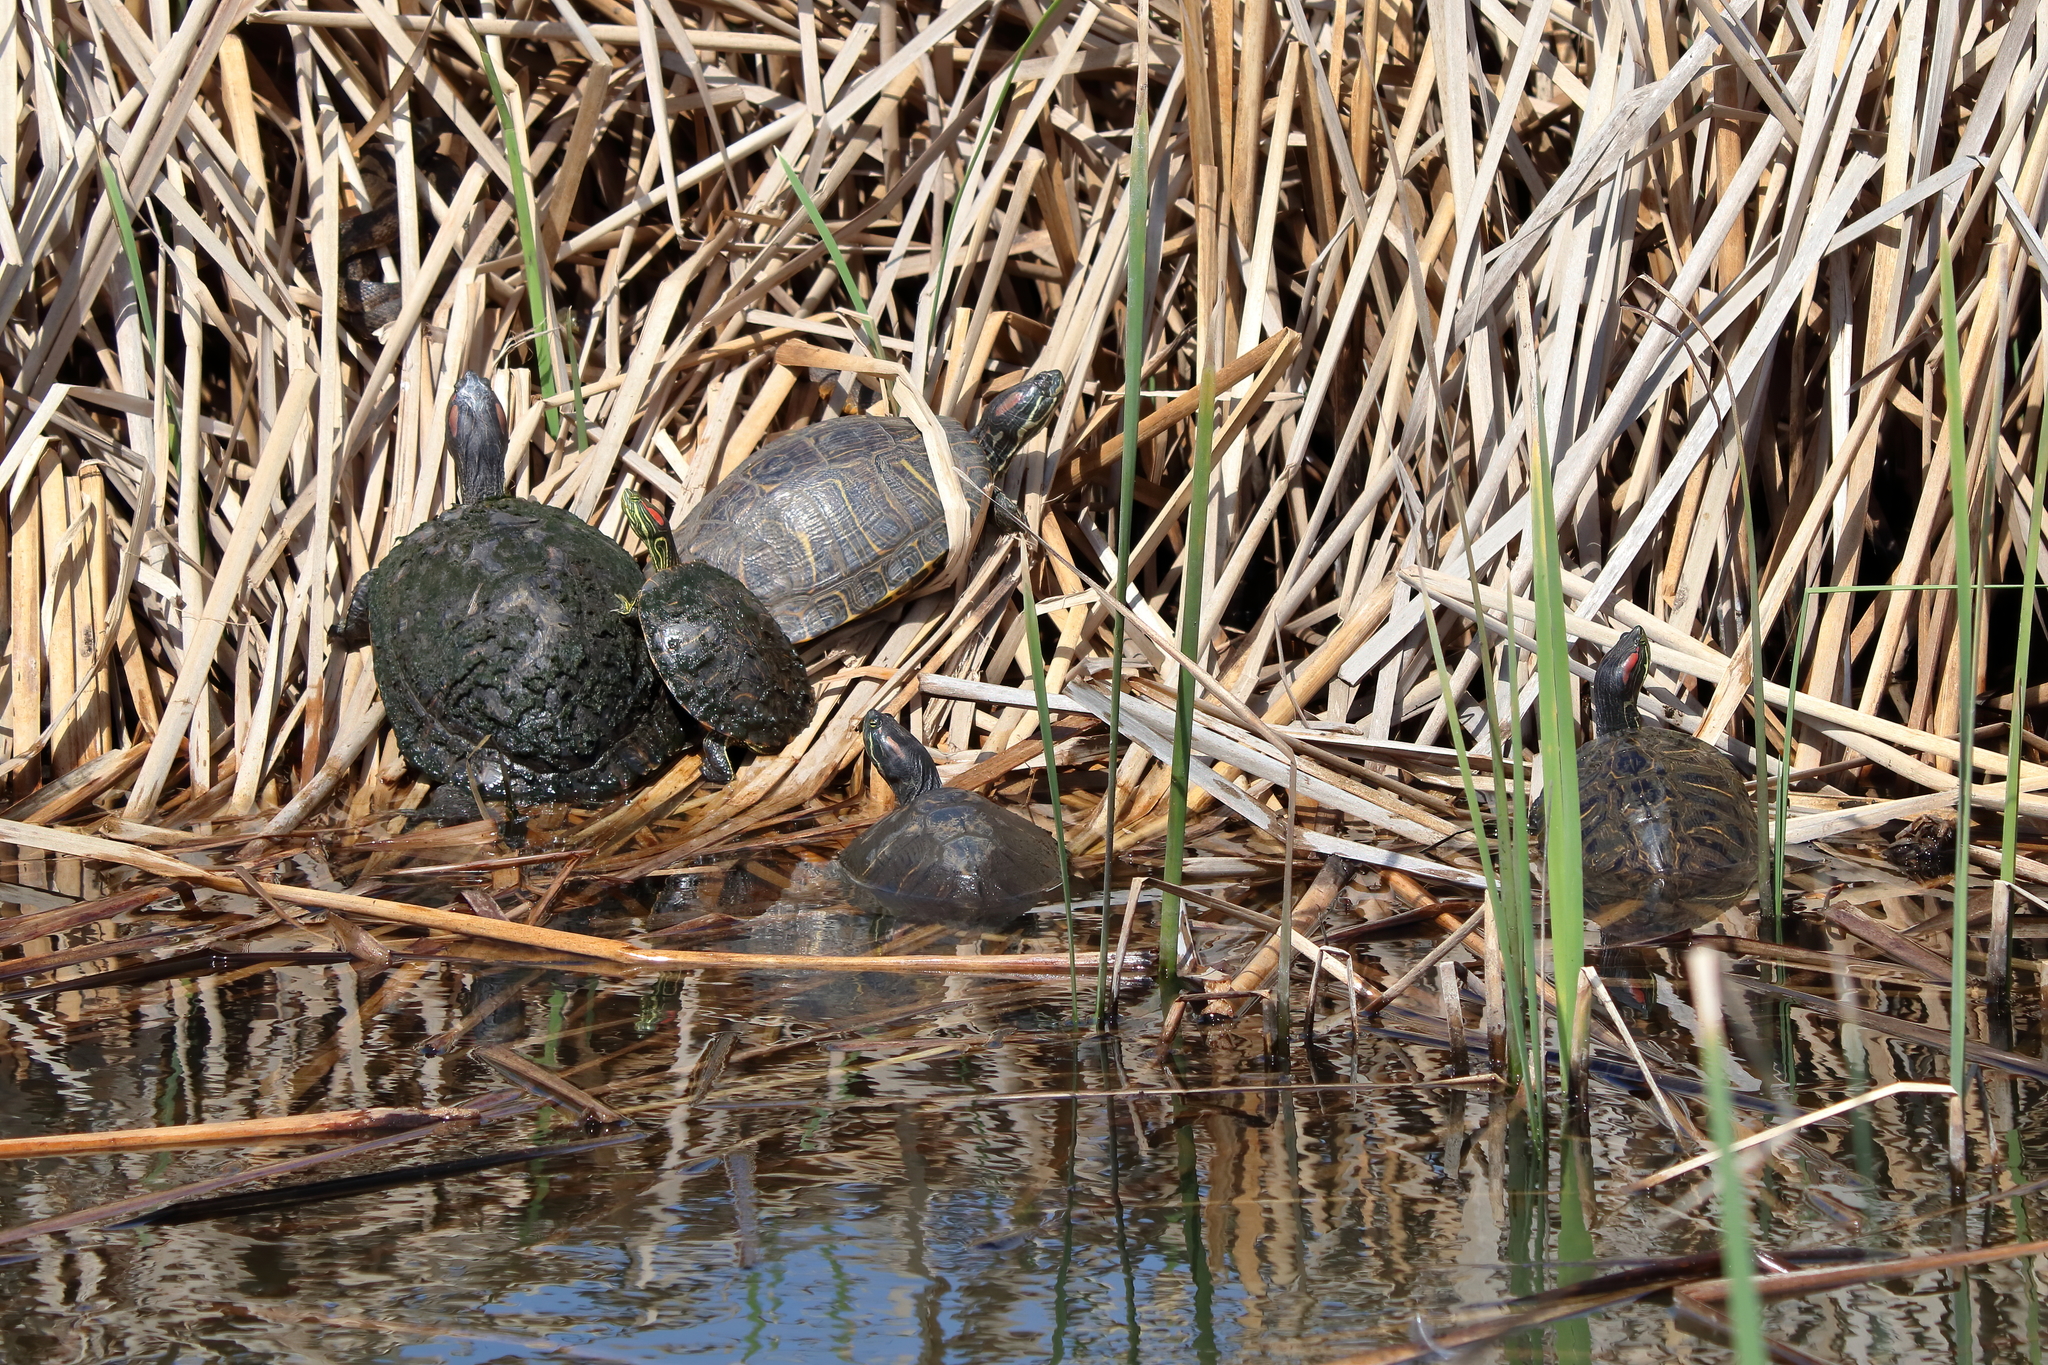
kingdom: Animalia
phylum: Chordata
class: Testudines
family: Emydidae
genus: Trachemys
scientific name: Trachemys scripta
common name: Slider
